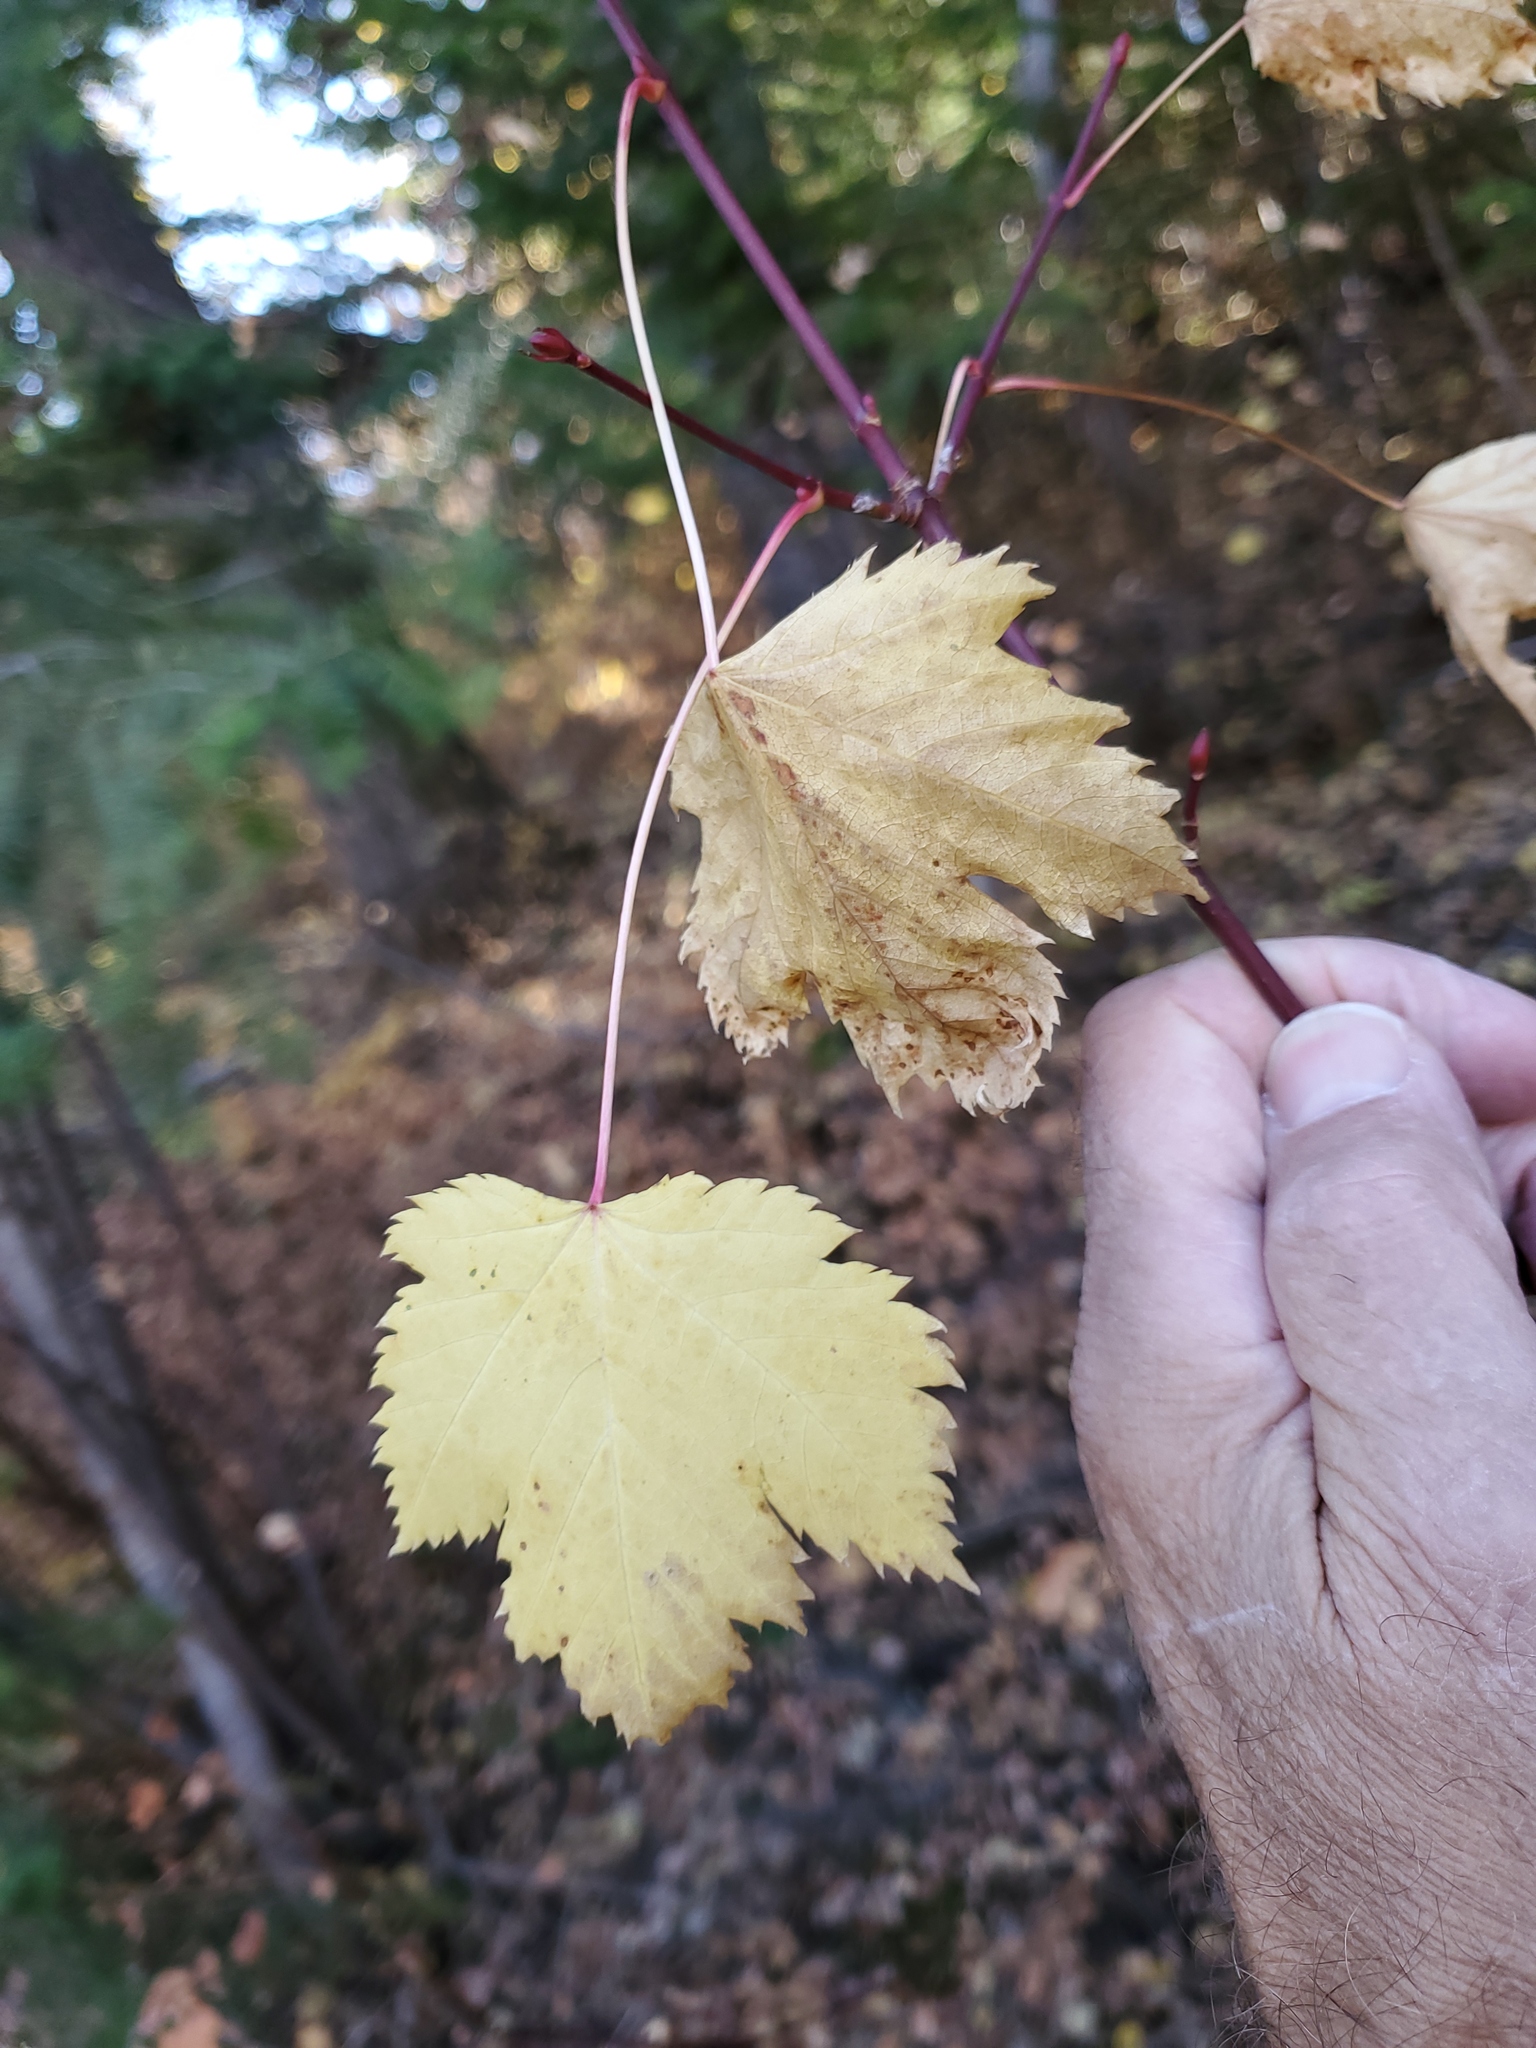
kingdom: Plantae
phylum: Tracheophyta
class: Magnoliopsida
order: Sapindales
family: Sapindaceae
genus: Acer
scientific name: Acer glabrum
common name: Rocky mountain maple
